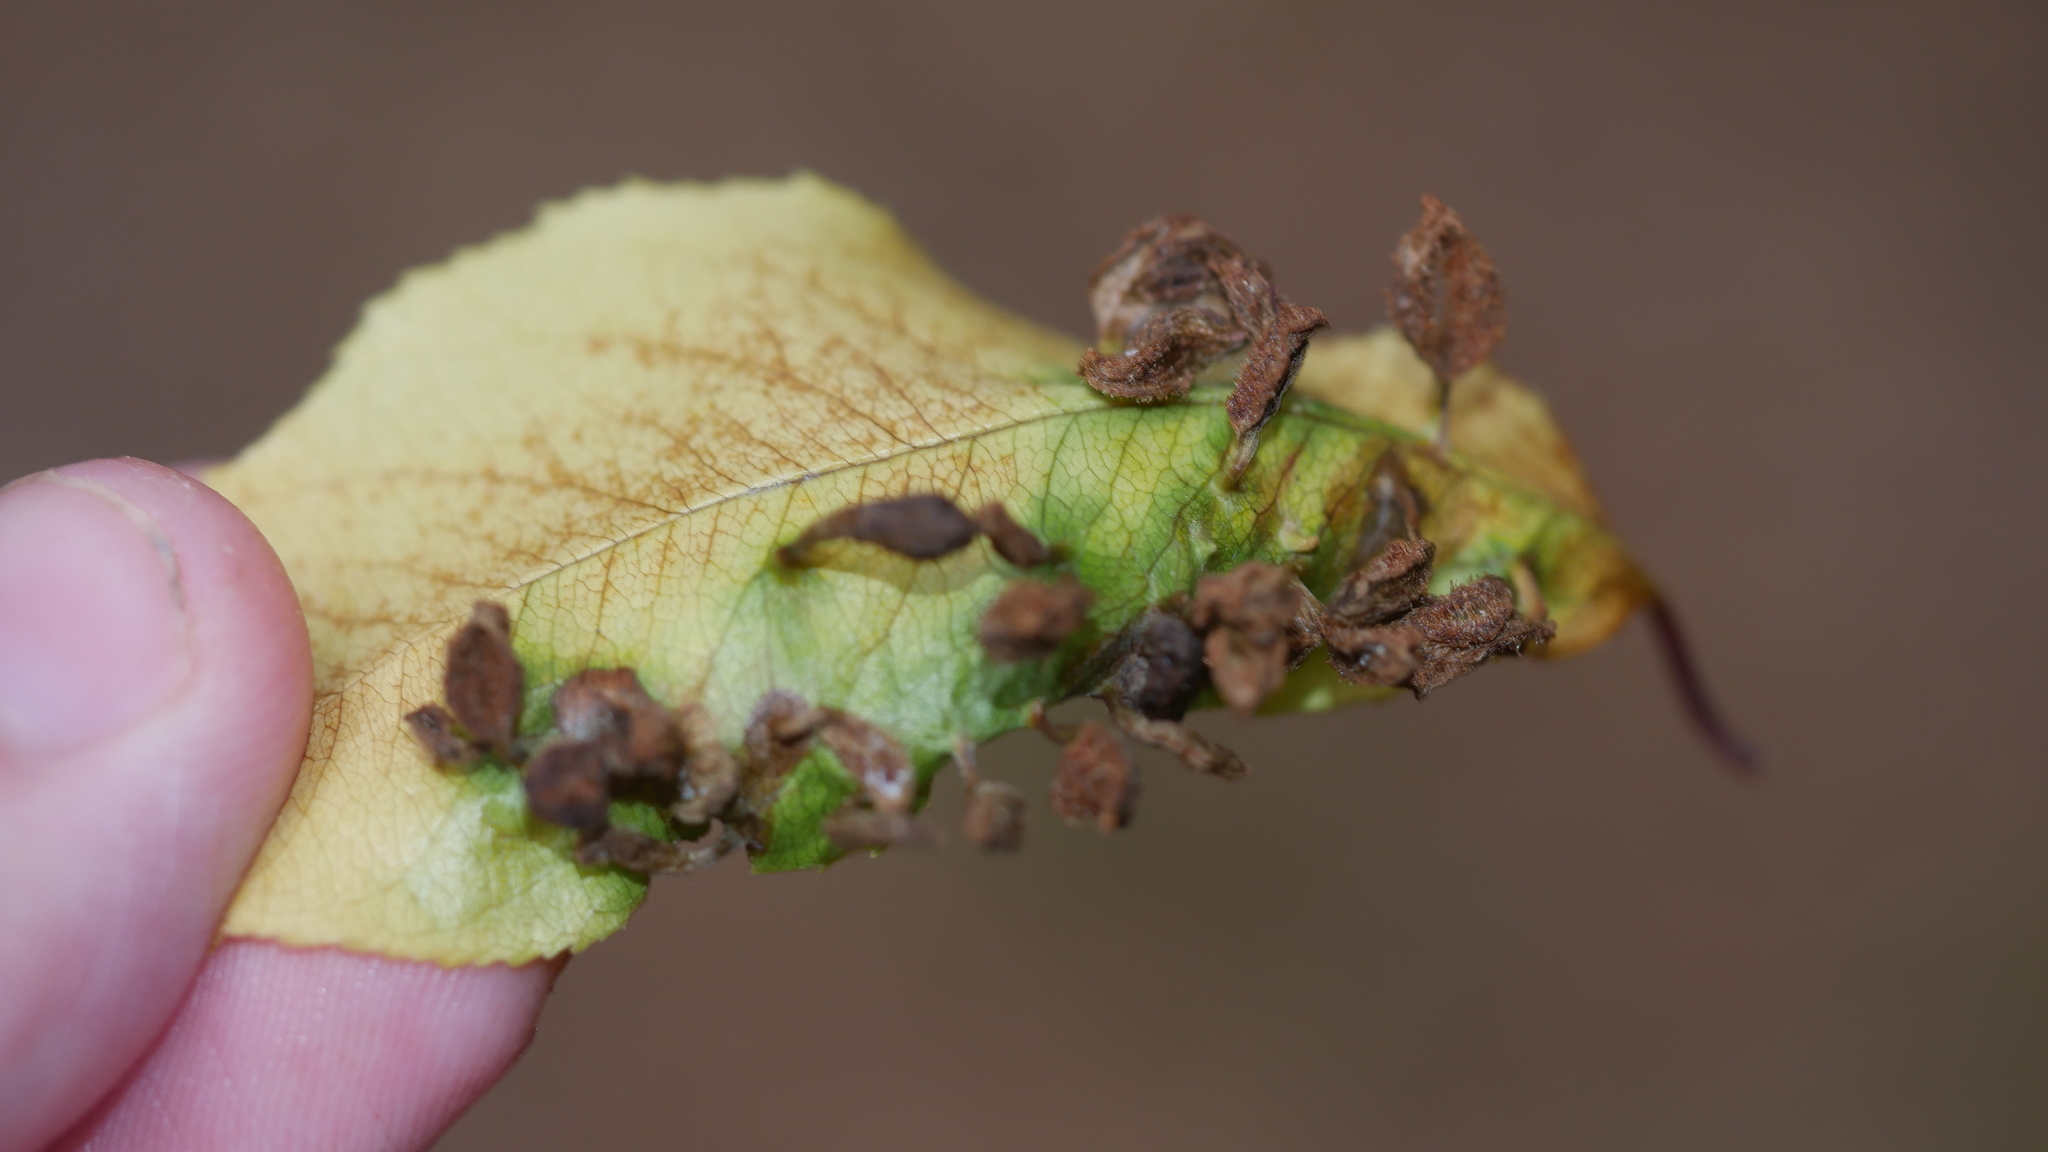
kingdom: Animalia
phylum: Arthropoda
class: Arachnida
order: Trombidiformes
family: Eriophyidae
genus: Eriophyes
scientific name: Eriophyes
